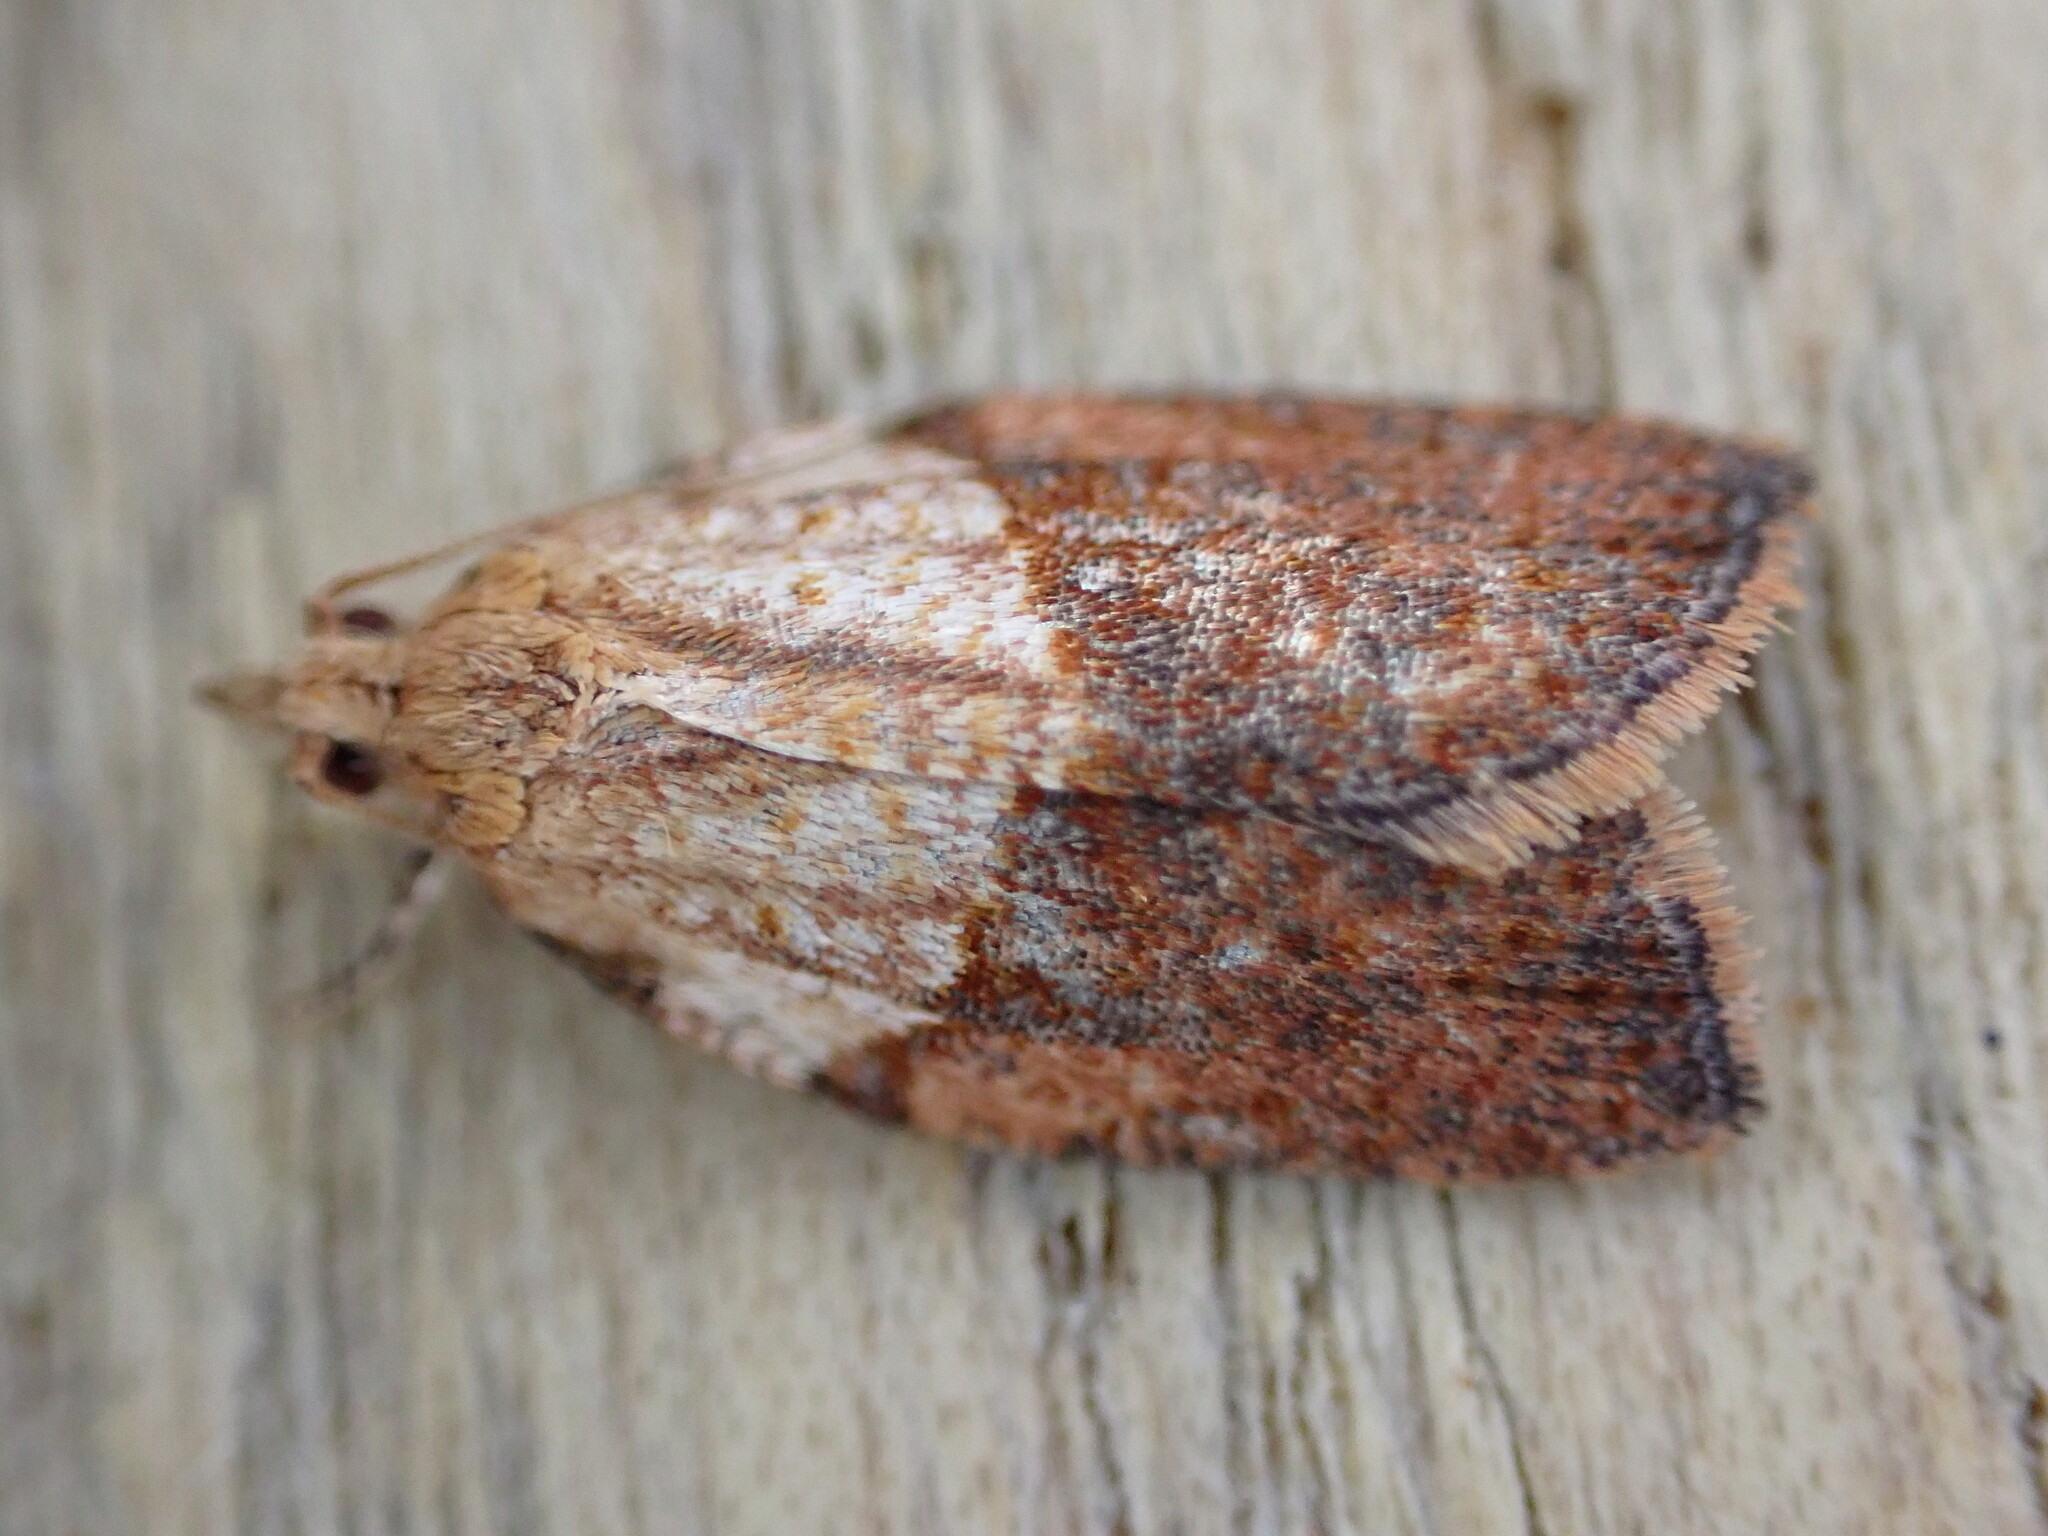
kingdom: Animalia
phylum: Arthropoda
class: Insecta
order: Lepidoptera
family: Tortricidae
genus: Epiphyas
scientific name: Epiphyas postvittana
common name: Light brown apple moth
